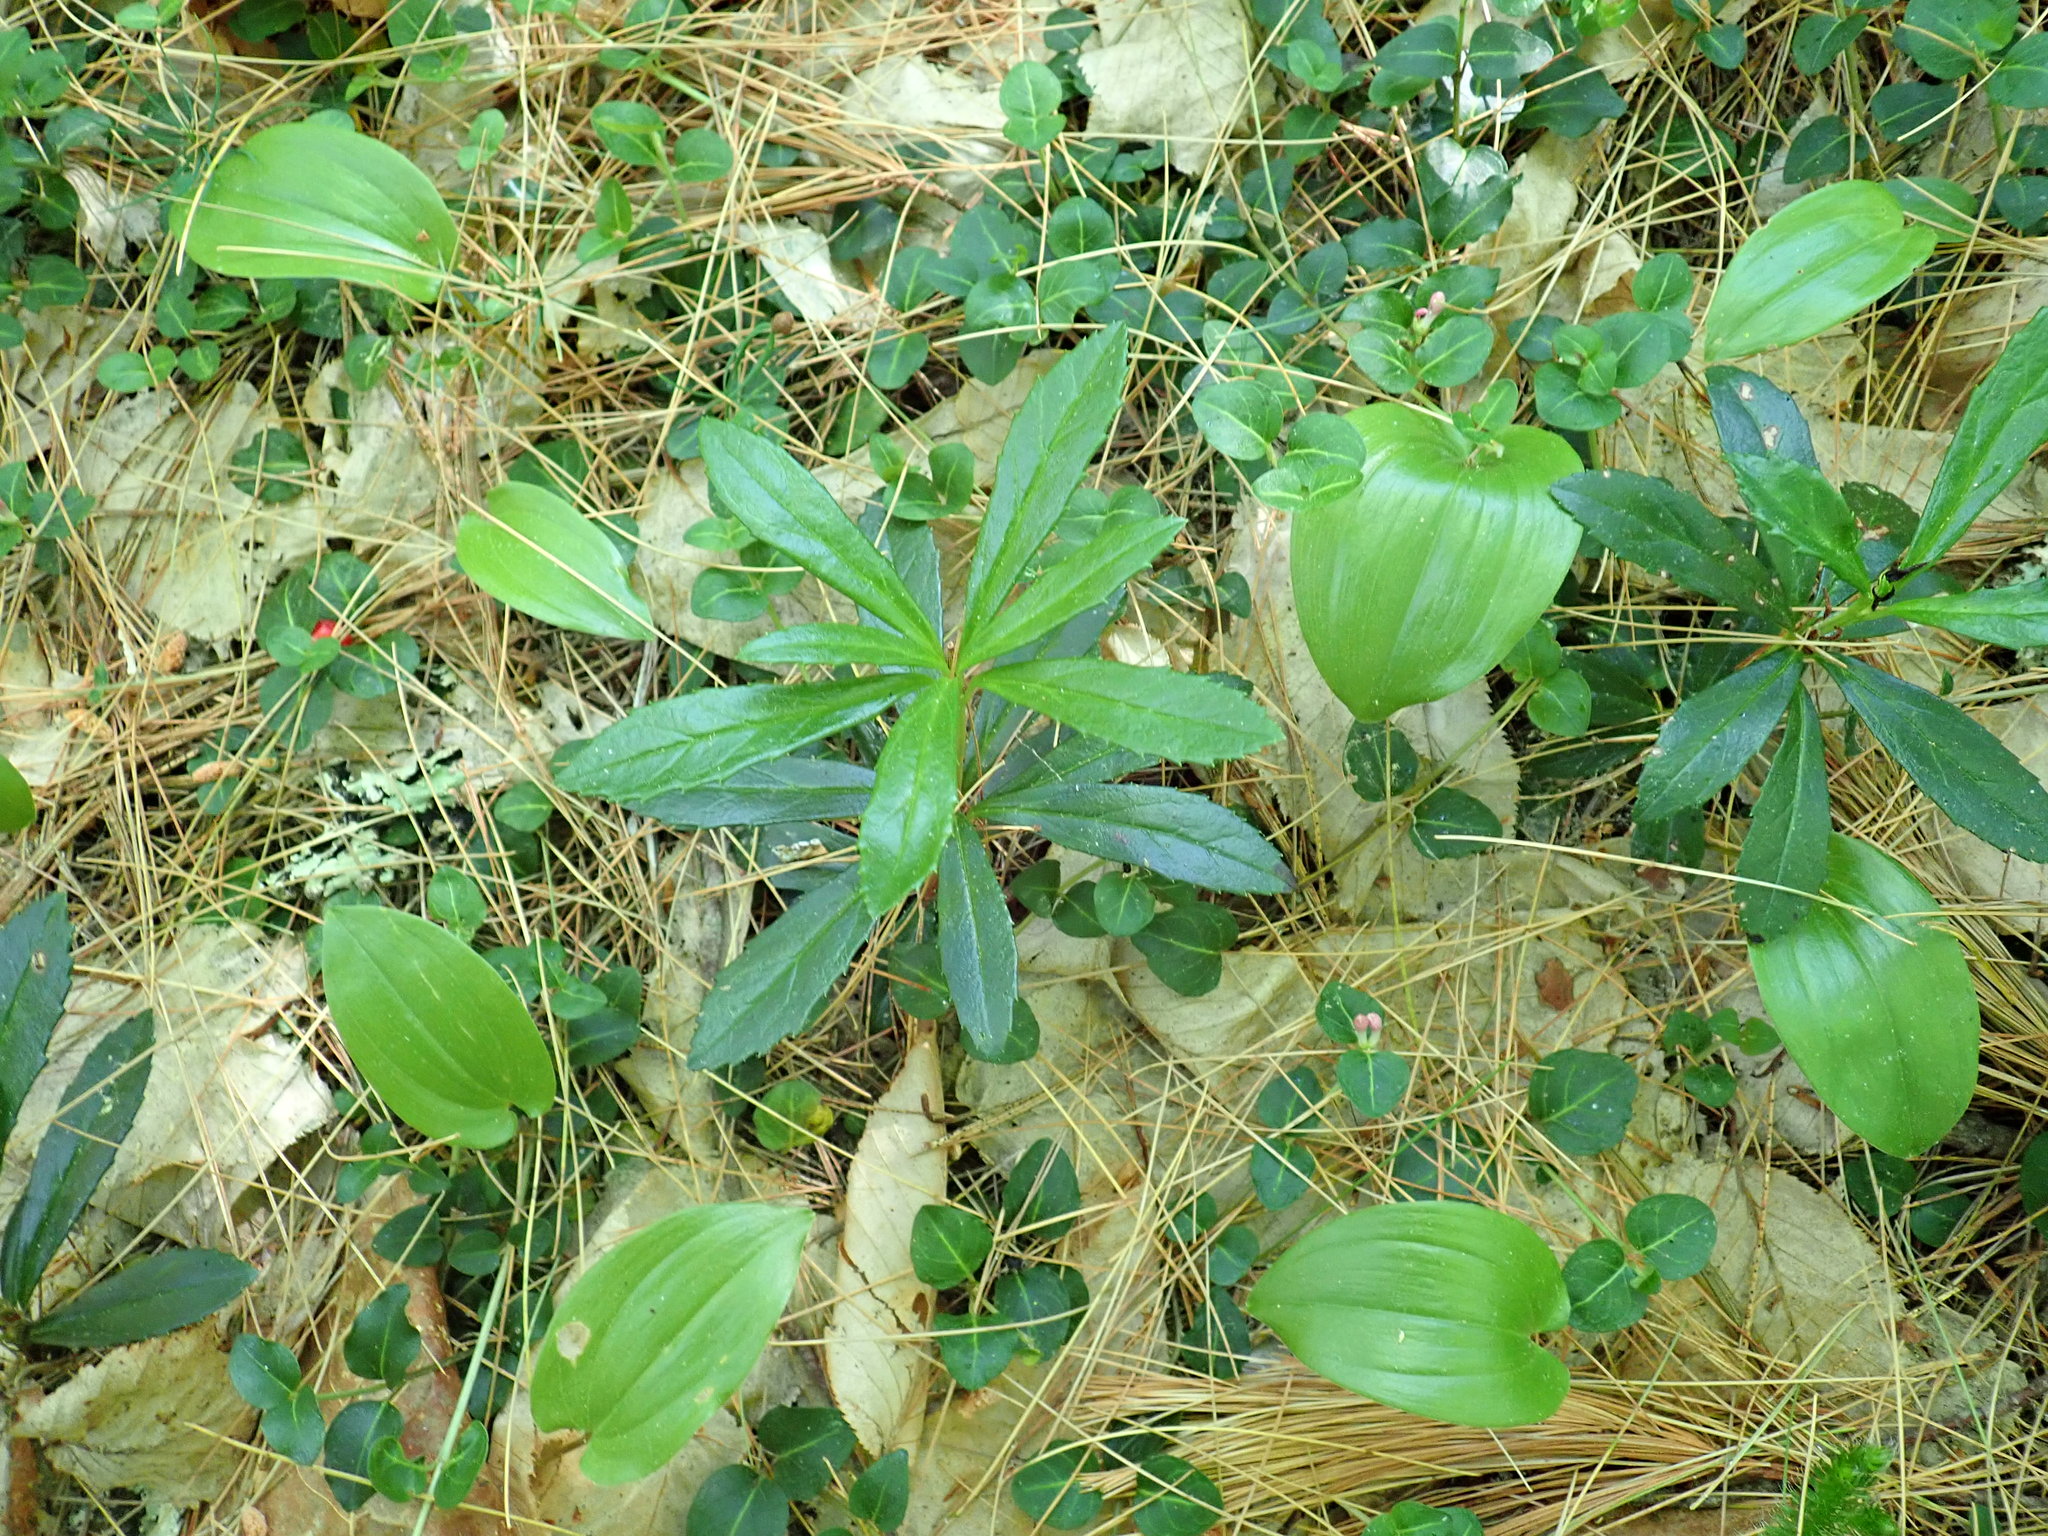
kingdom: Plantae
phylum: Tracheophyta
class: Magnoliopsida
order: Ericales
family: Ericaceae
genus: Chimaphila
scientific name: Chimaphila umbellata
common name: Pipsissewa
